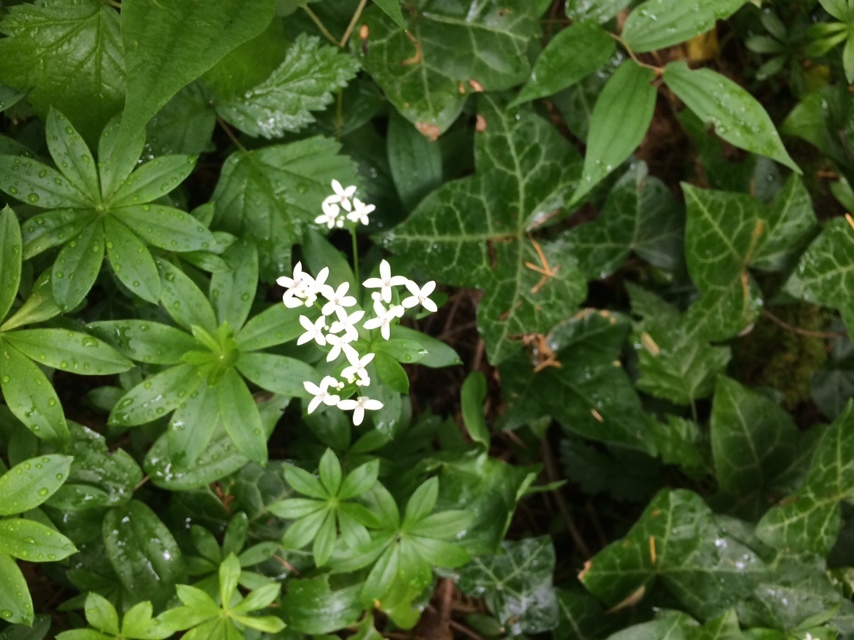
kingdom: Plantae
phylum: Tracheophyta
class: Magnoliopsida
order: Gentianales
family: Rubiaceae
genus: Galium
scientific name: Galium odoratum
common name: Sweet woodruff
